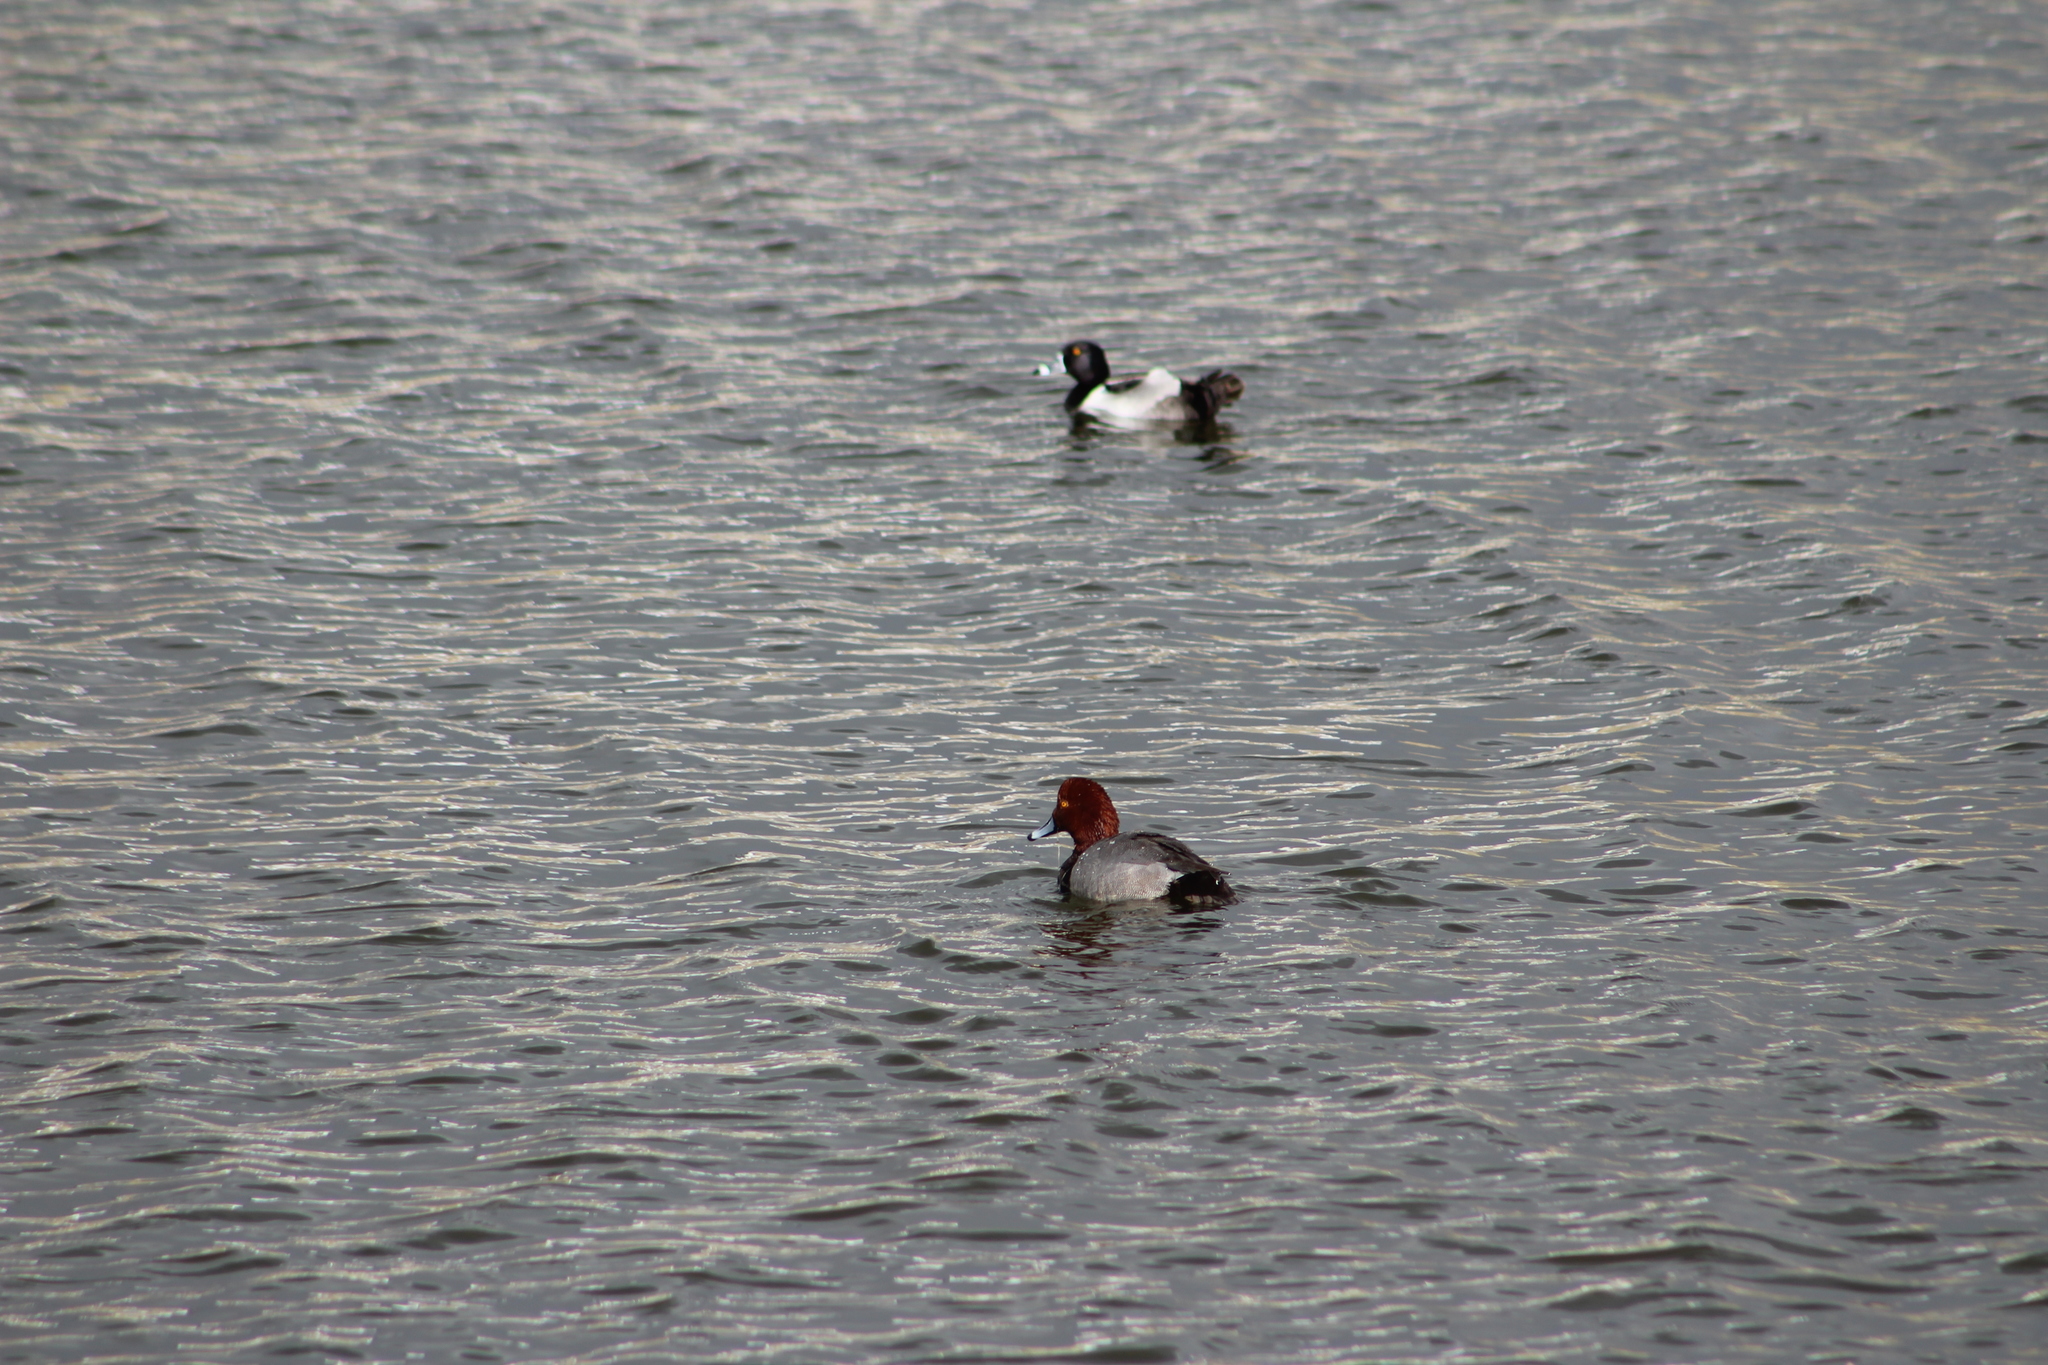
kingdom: Animalia
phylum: Chordata
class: Aves
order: Anseriformes
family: Anatidae
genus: Aythya
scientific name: Aythya americana
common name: Redhead
